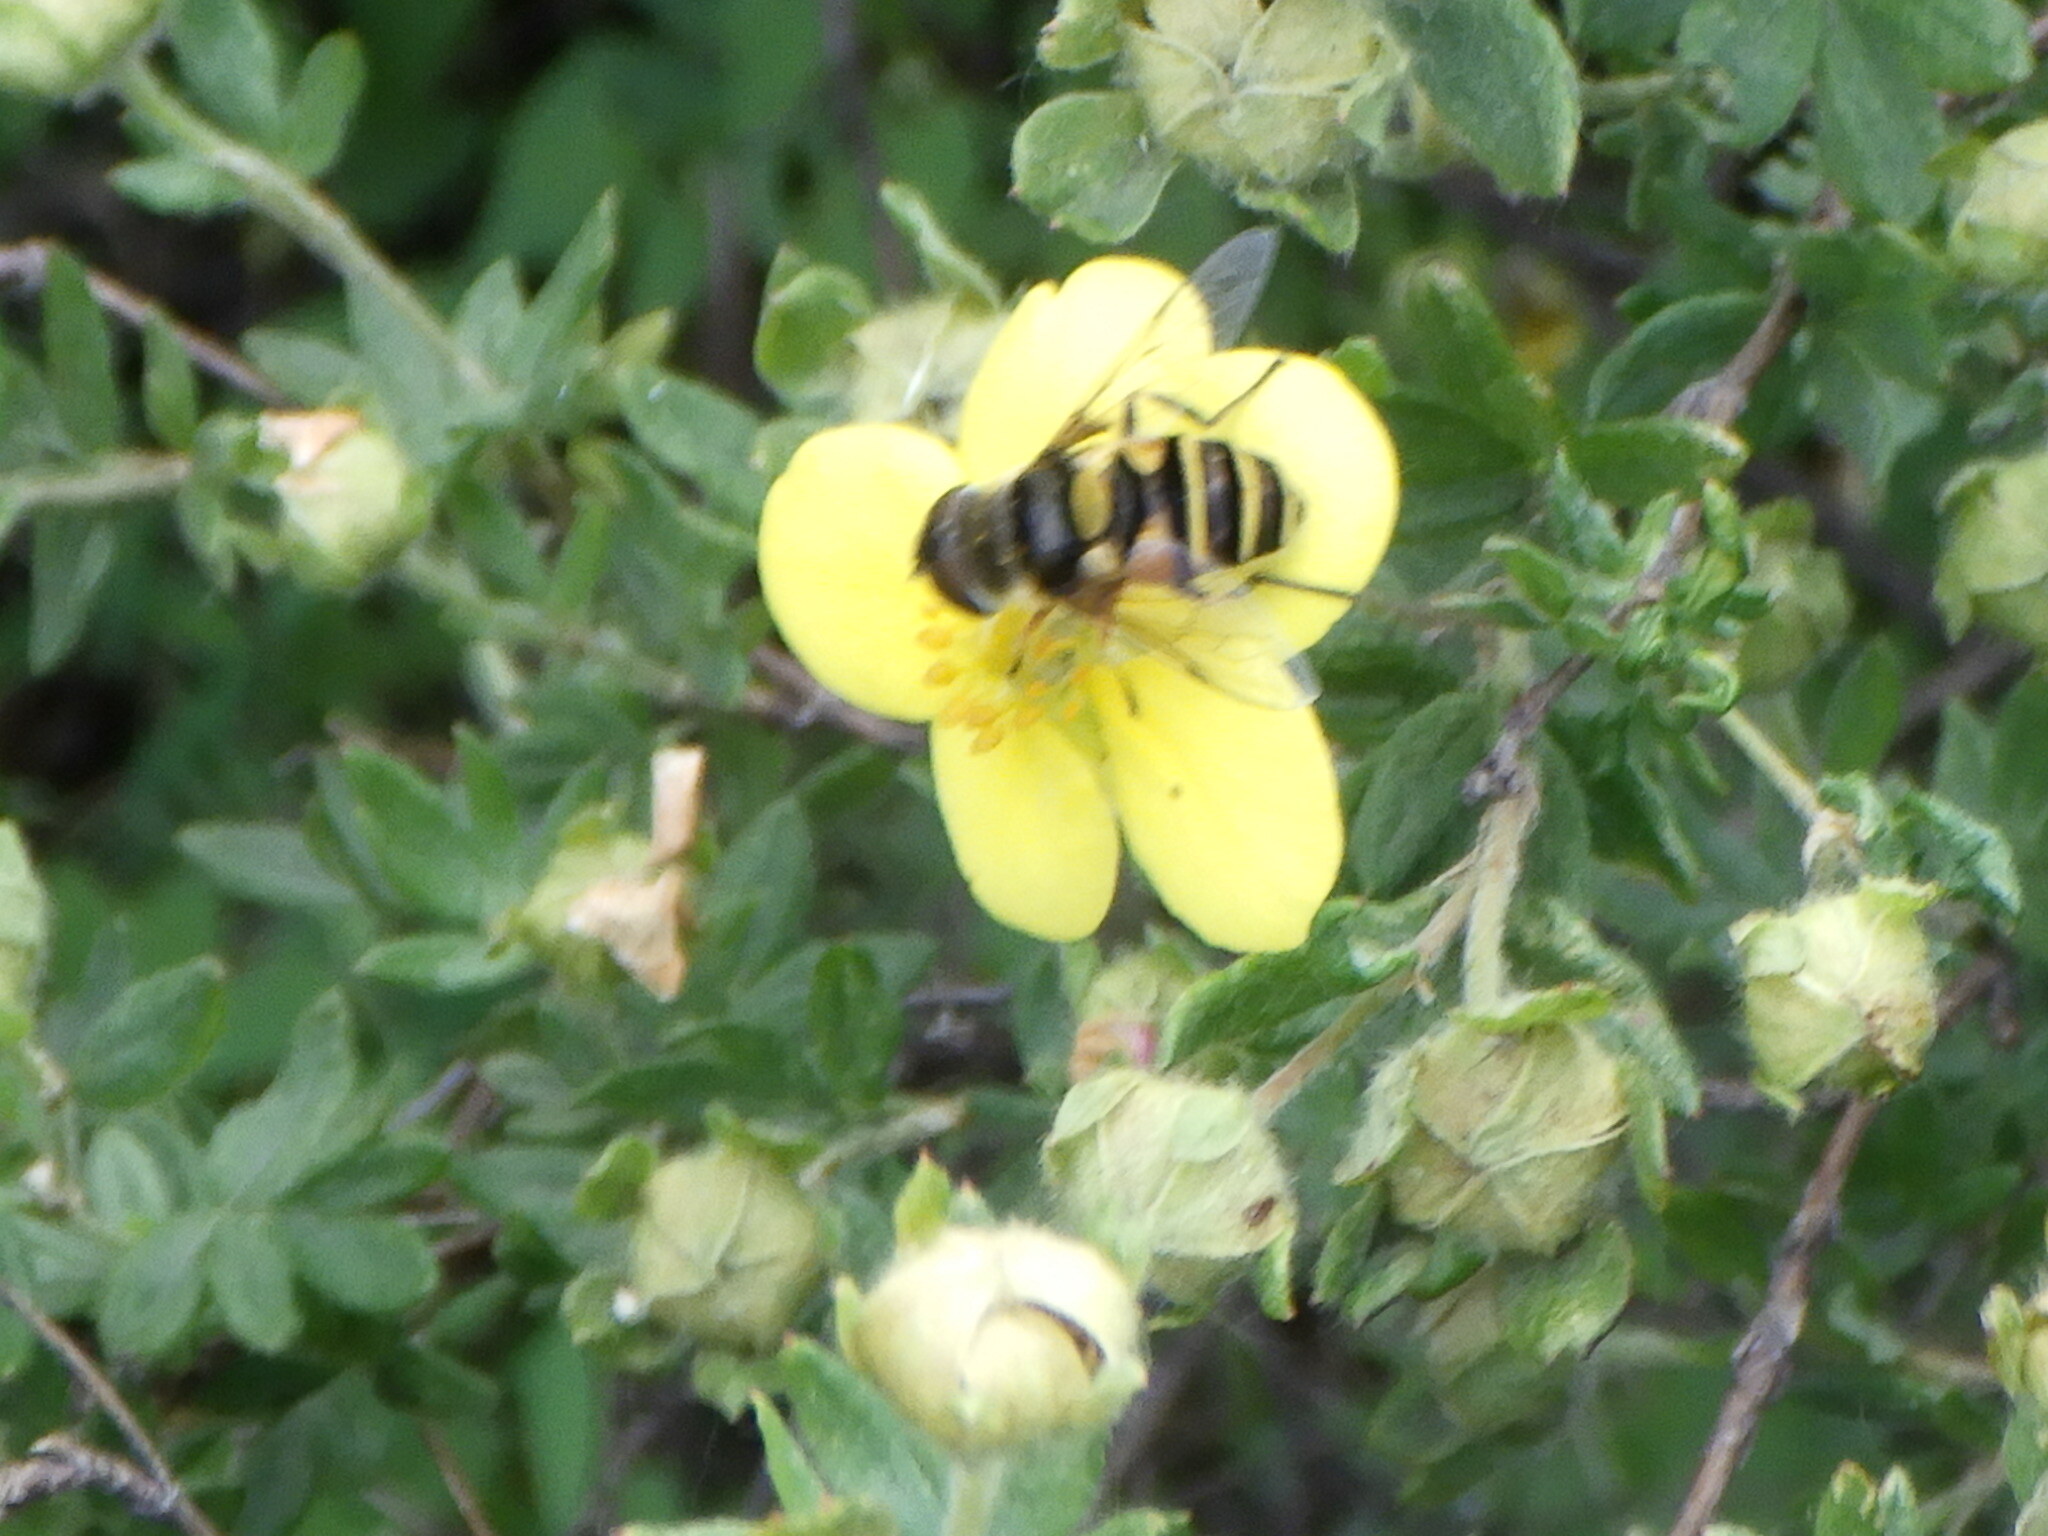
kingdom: Animalia
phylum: Arthropoda
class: Insecta
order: Diptera
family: Syrphidae
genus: Eristalis
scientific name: Eristalis transversa
